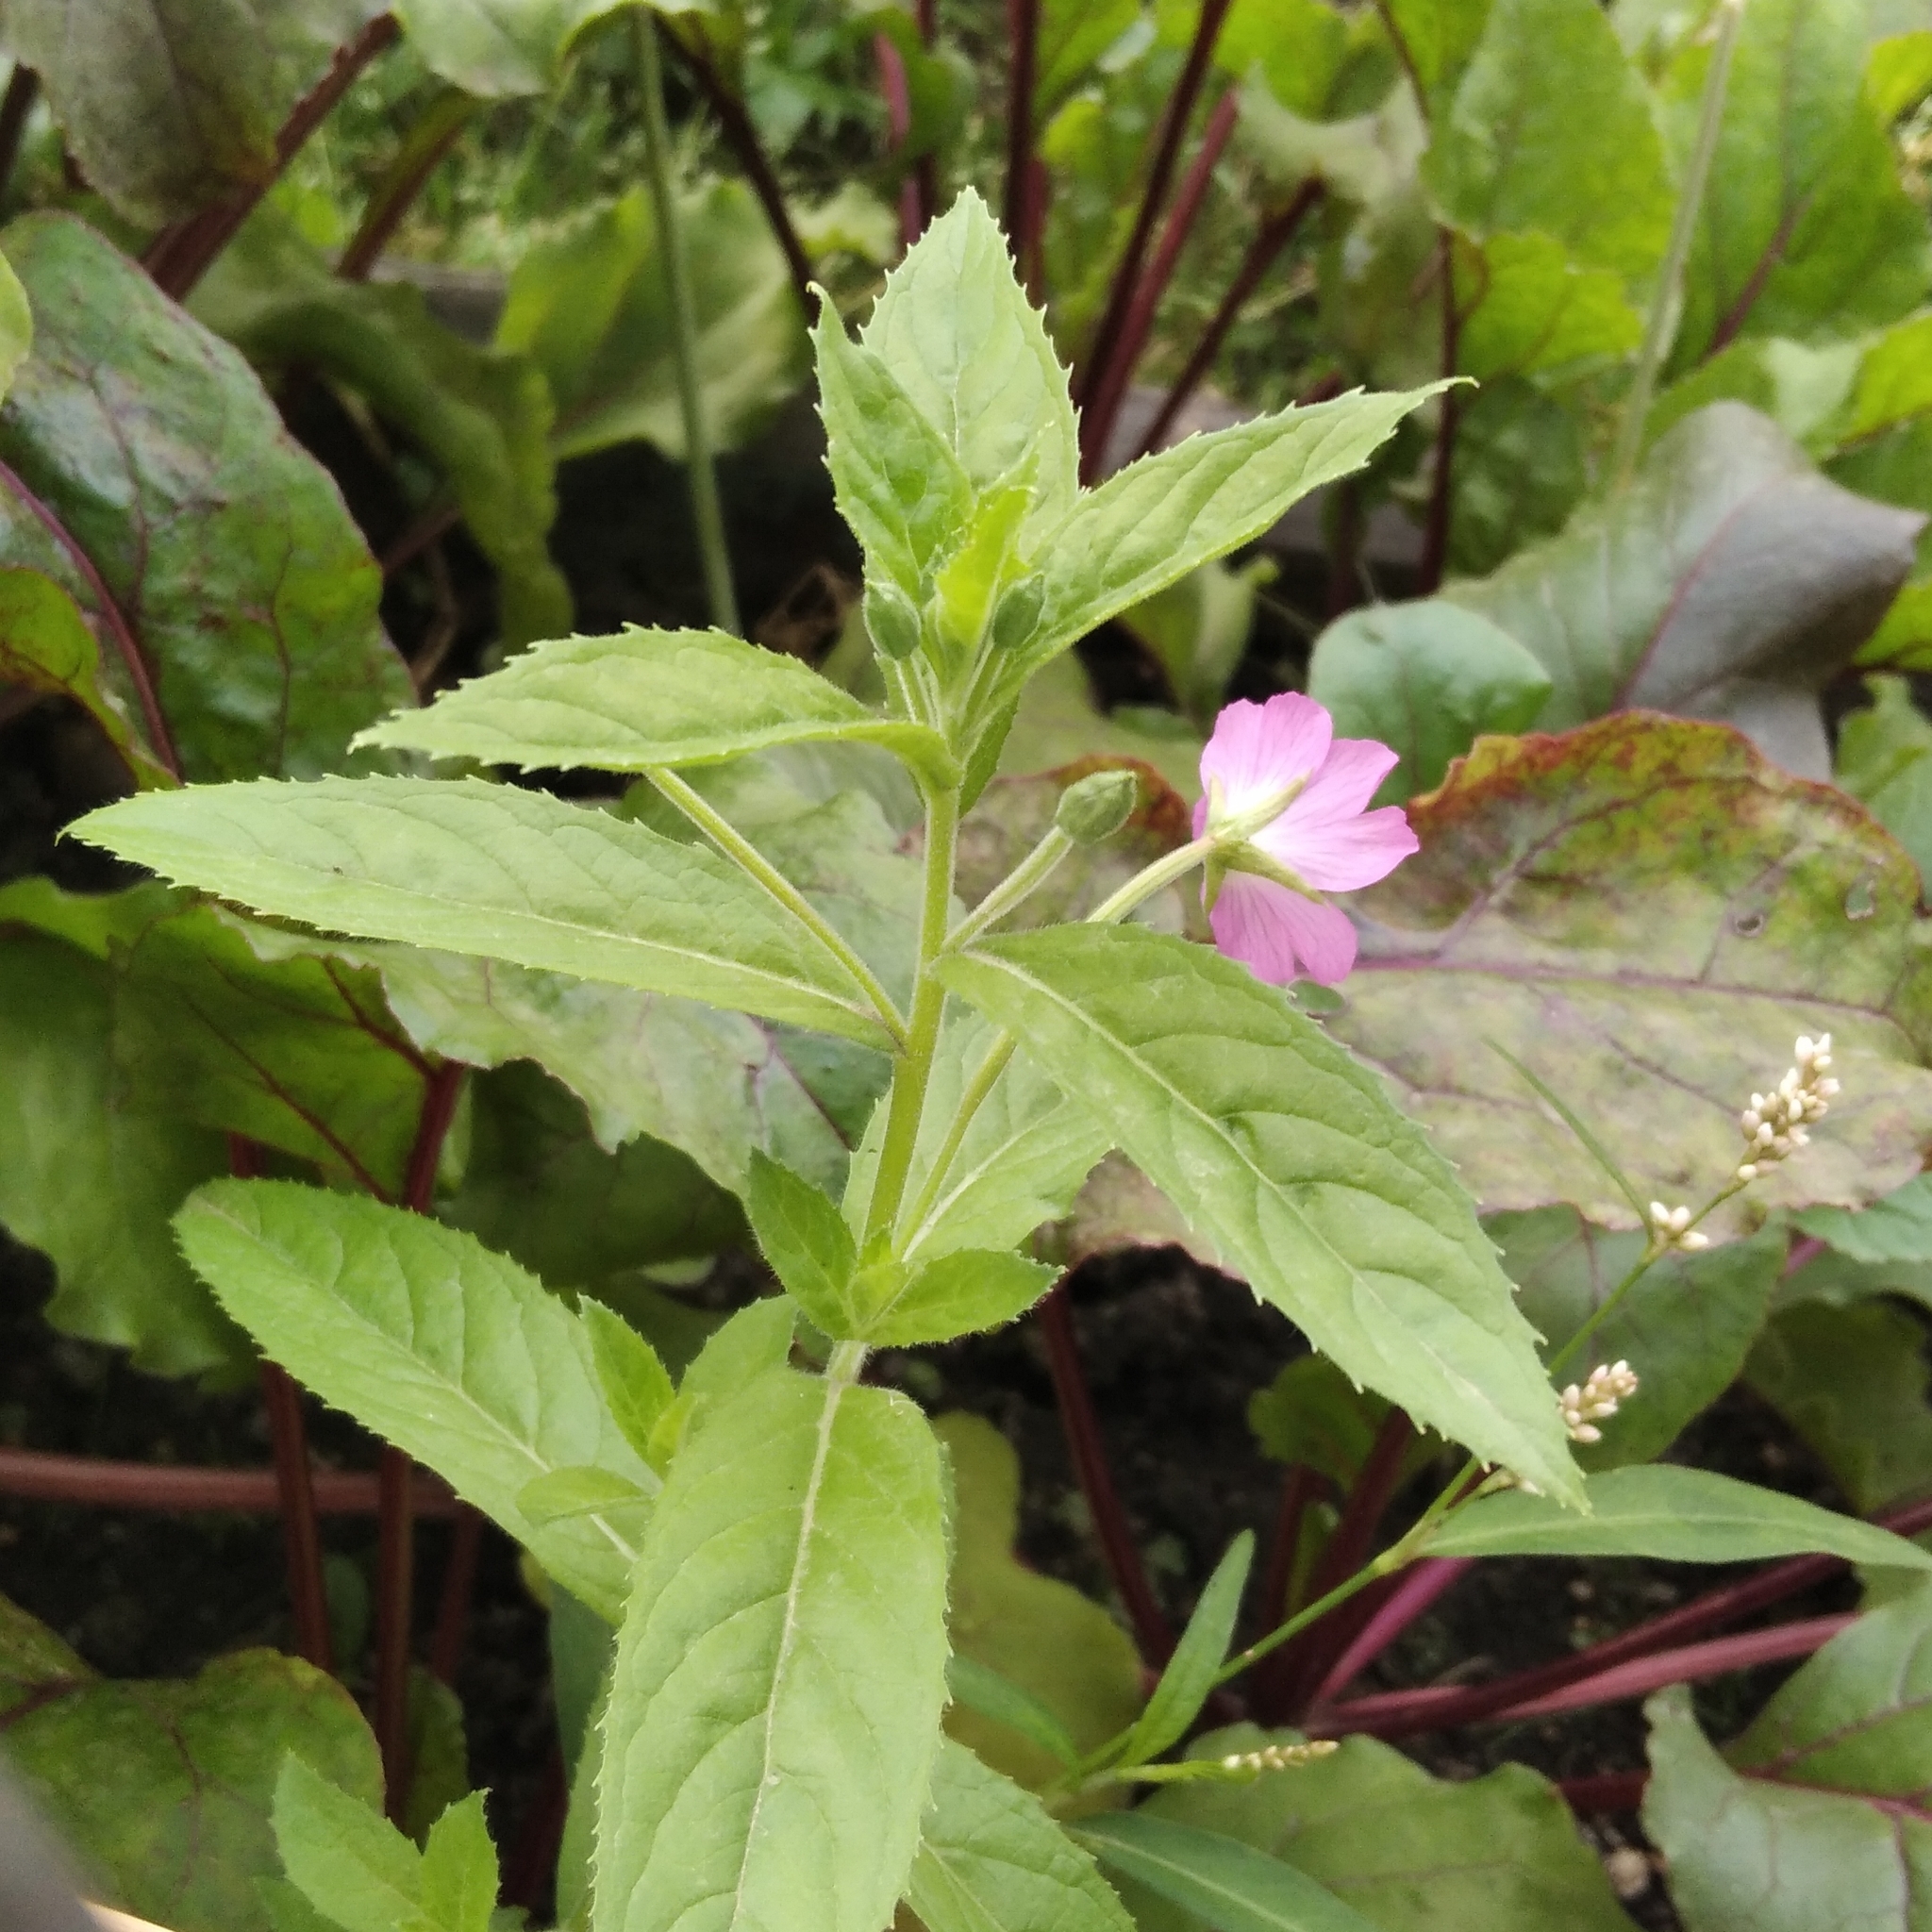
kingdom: Plantae
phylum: Tracheophyta
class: Magnoliopsida
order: Myrtales
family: Onagraceae
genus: Epilobium
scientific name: Epilobium hirsutum
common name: Great willowherb
